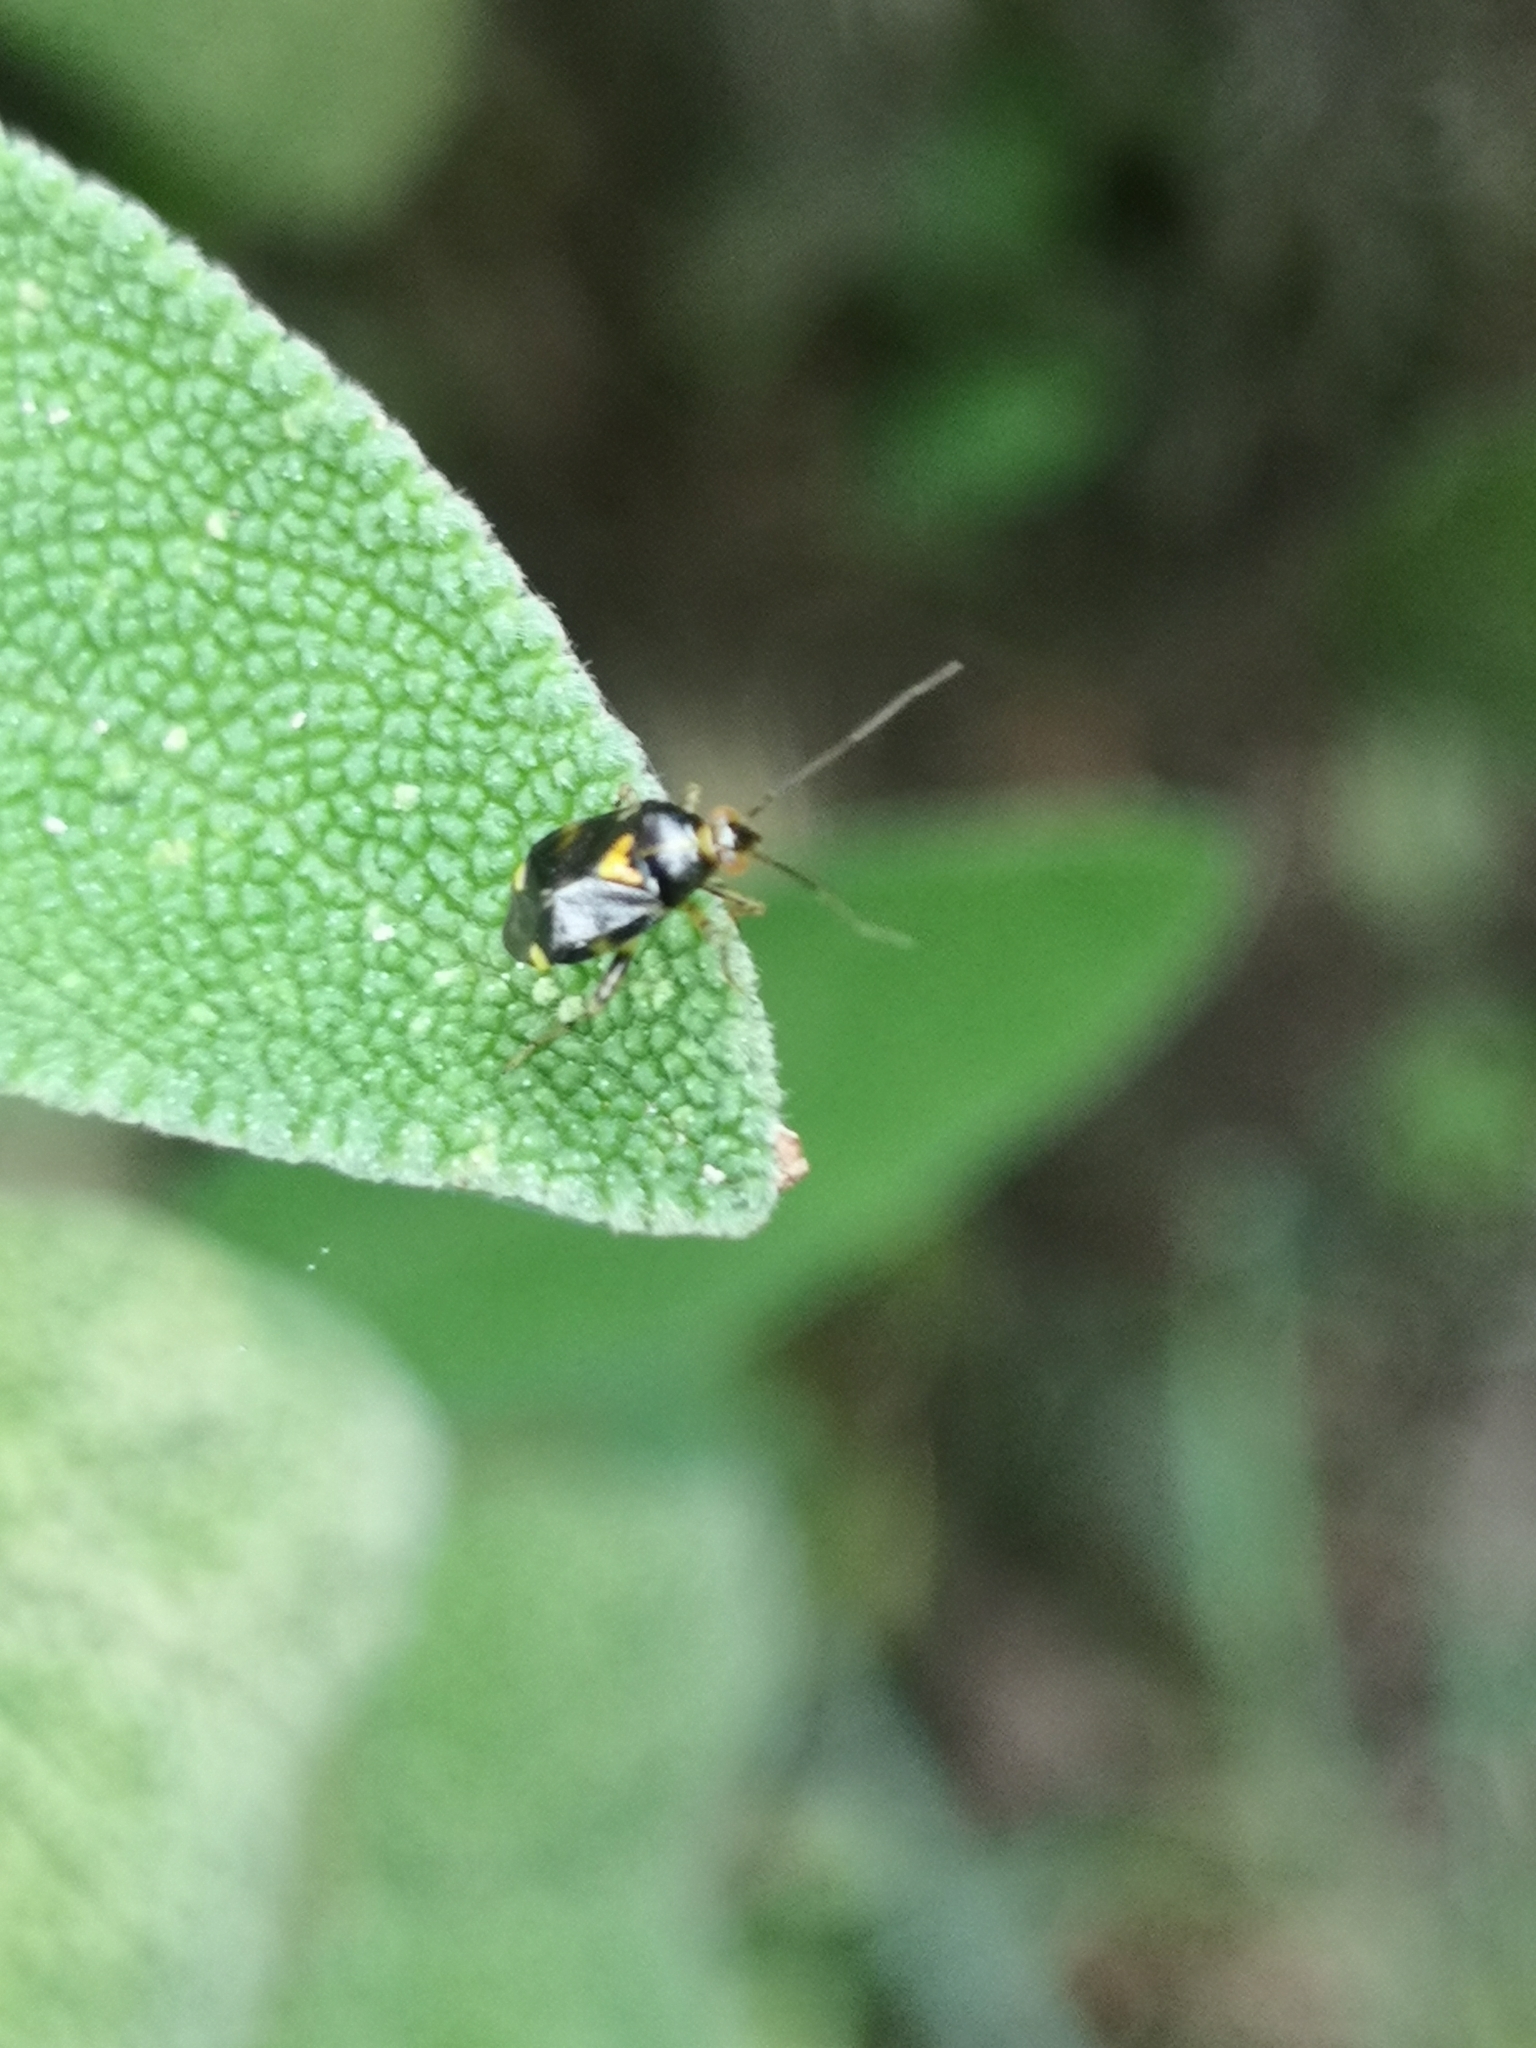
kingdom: Animalia
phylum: Arthropoda
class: Insecta
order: Hemiptera
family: Miridae
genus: Liocoris
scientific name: Liocoris tripustulatus
